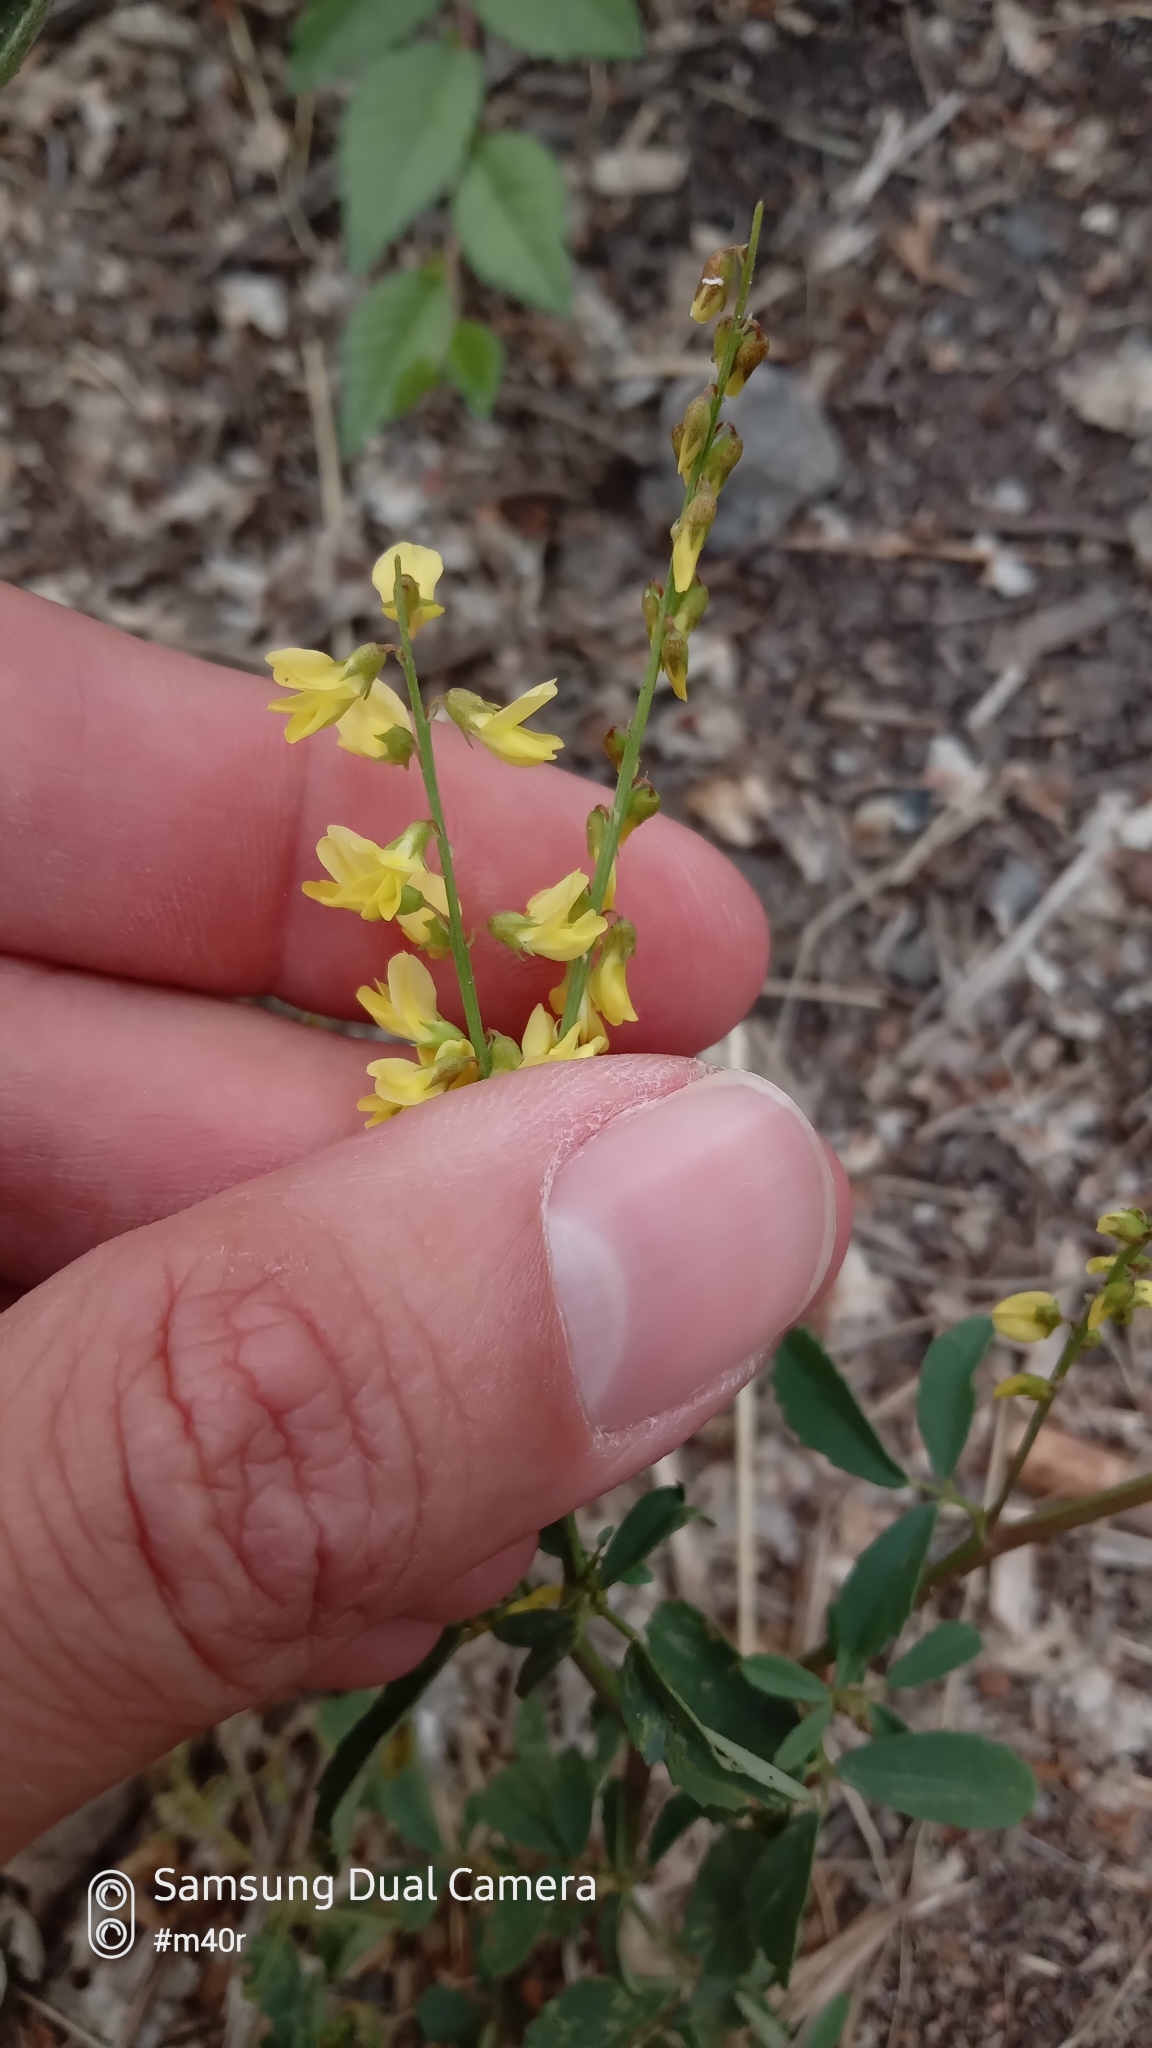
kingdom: Plantae
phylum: Tracheophyta
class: Magnoliopsida
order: Fabales
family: Fabaceae
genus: Melilotus
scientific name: Melilotus officinalis
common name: Sweetclover
